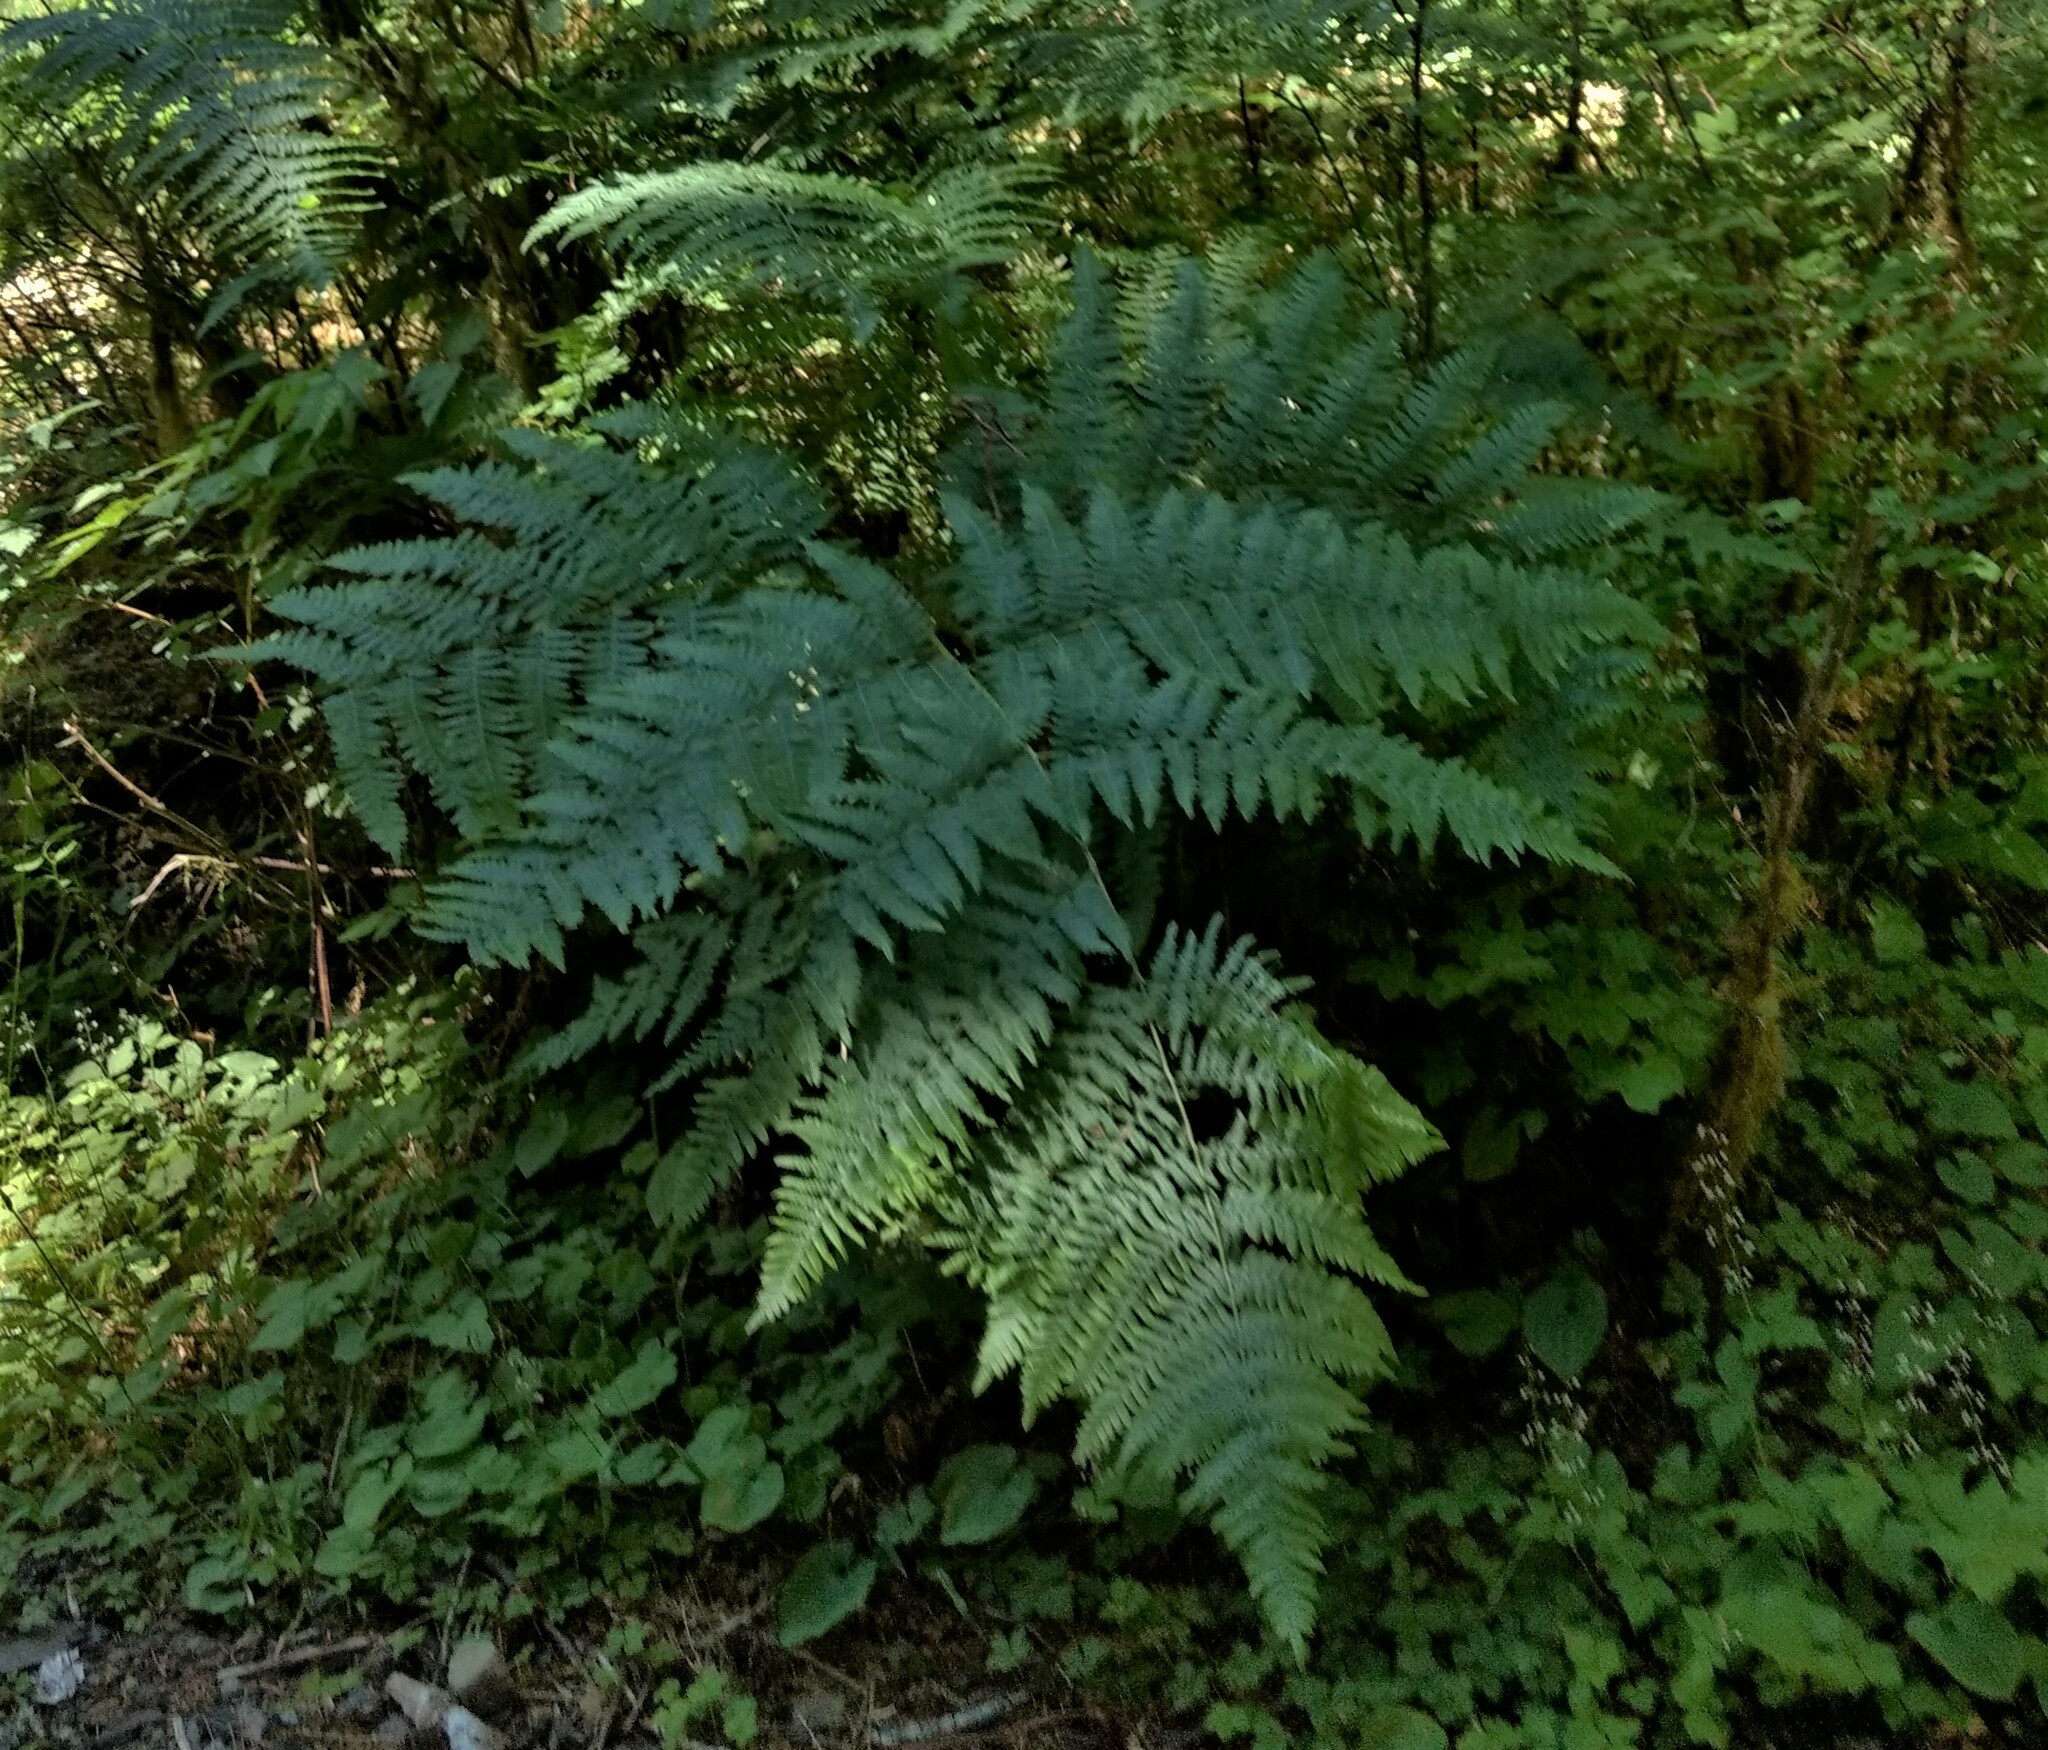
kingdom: Plantae
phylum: Tracheophyta
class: Polypodiopsida
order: Polypodiales
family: Dennstaedtiaceae
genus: Pteridium
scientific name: Pteridium aquilinum
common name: Bracken
